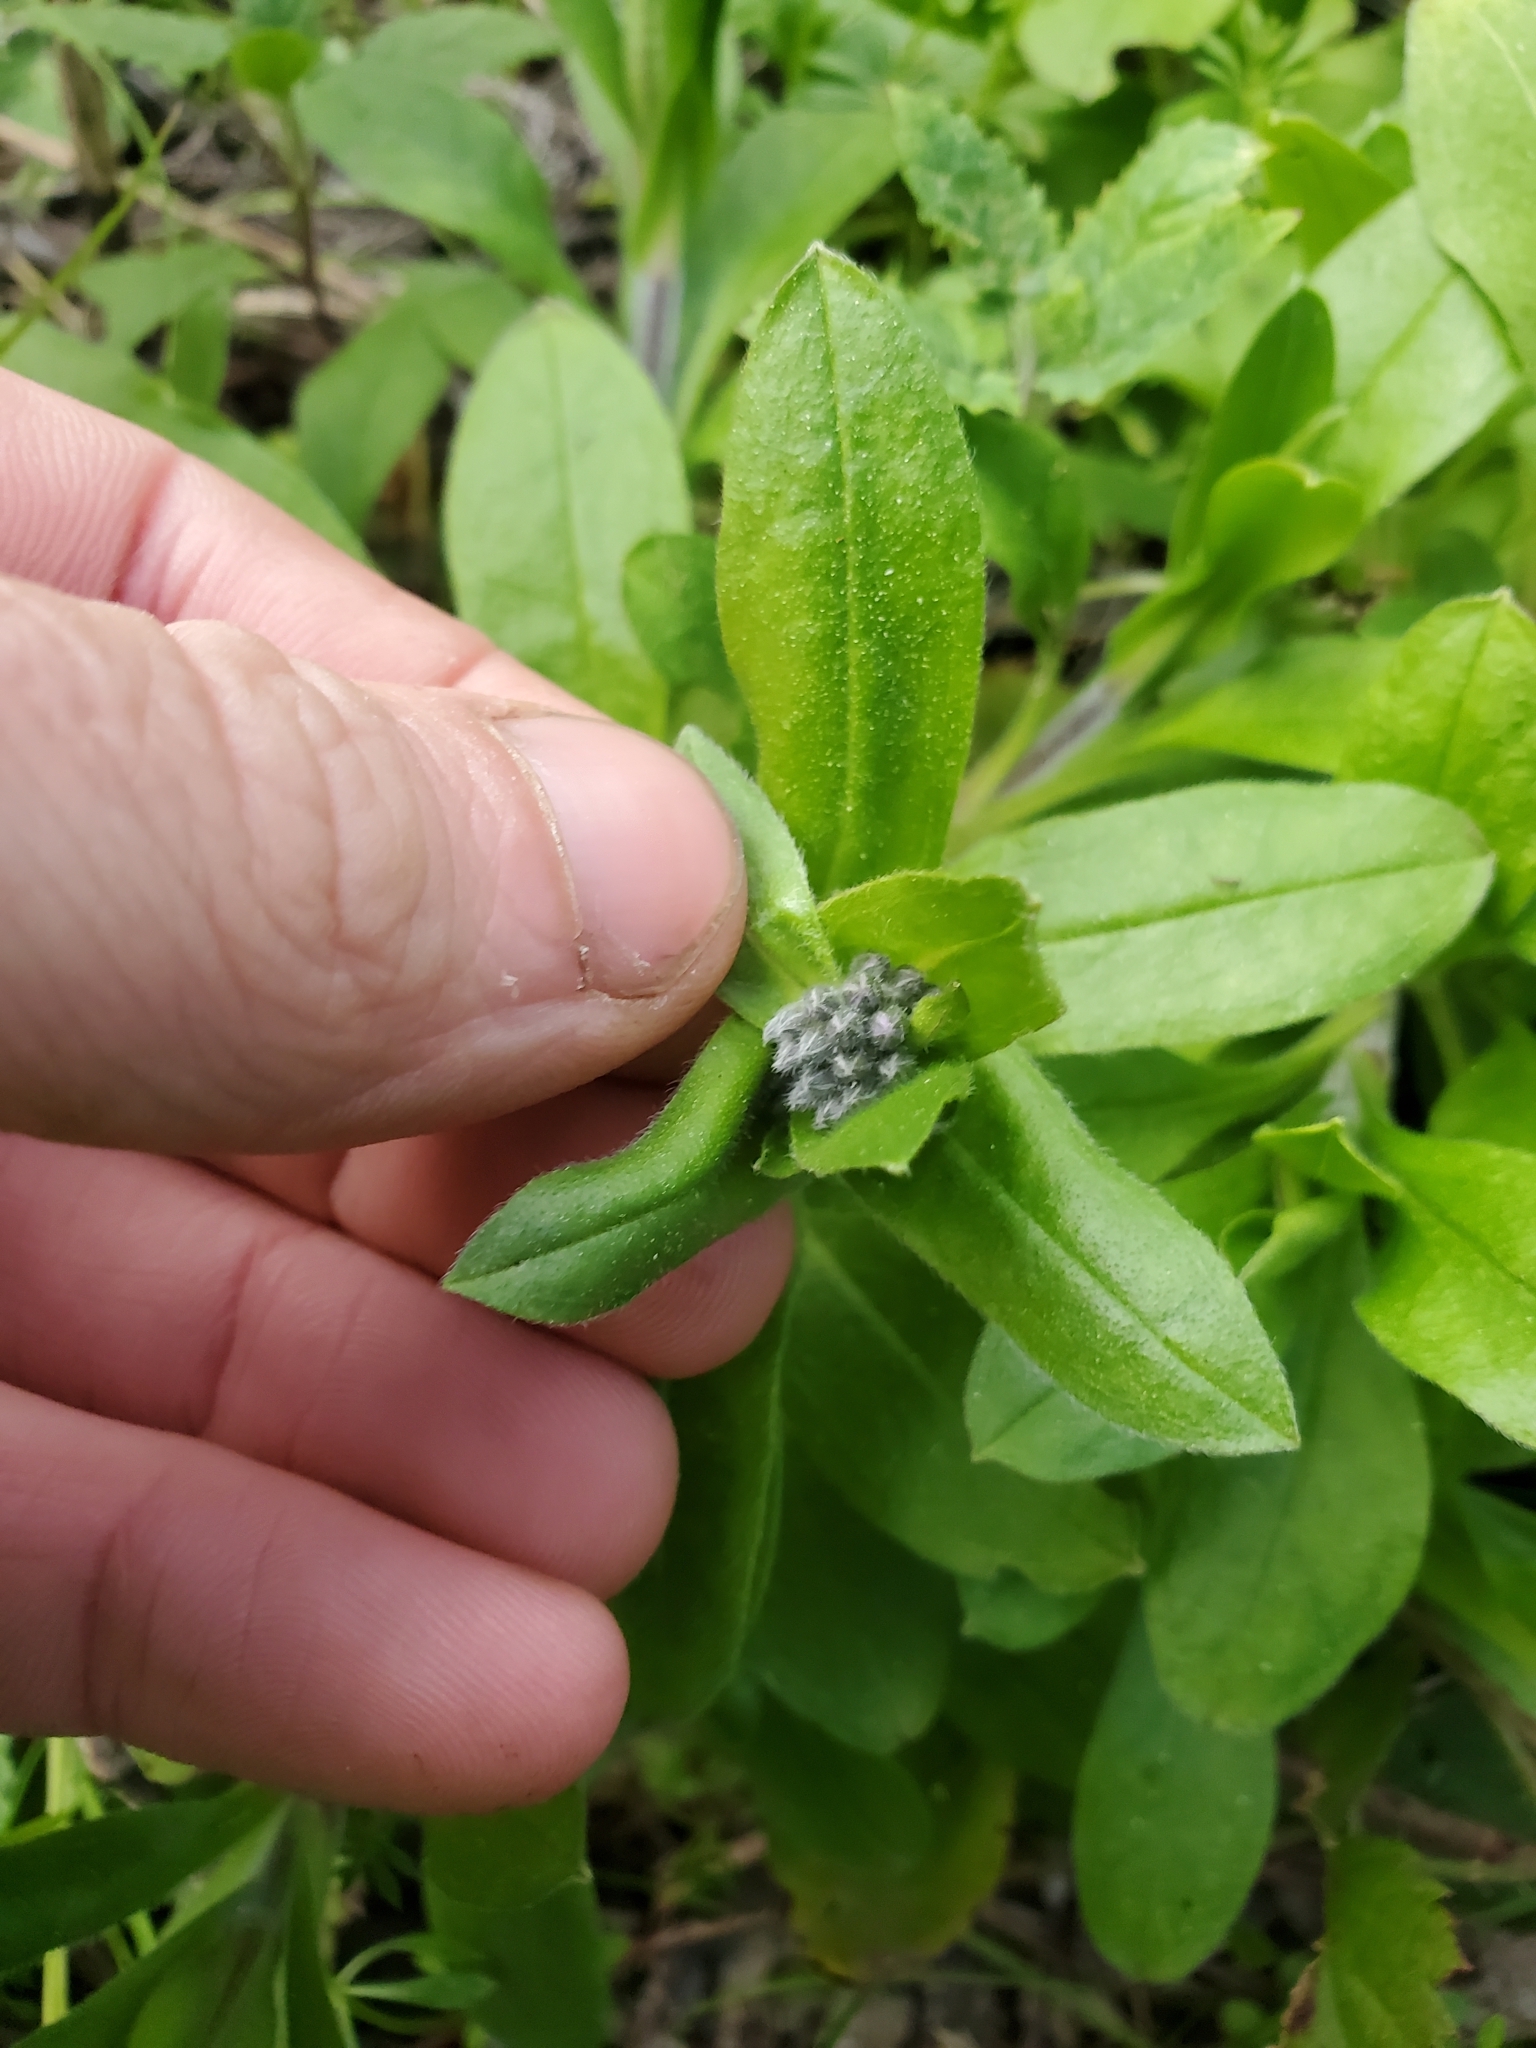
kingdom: Plantae
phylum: Tracheophyta
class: Magnoliopsida
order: Boraginales
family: Boraginaceae
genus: Myosotis
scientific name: Myosotis latifolia
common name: Broadleaf forget-me-not
